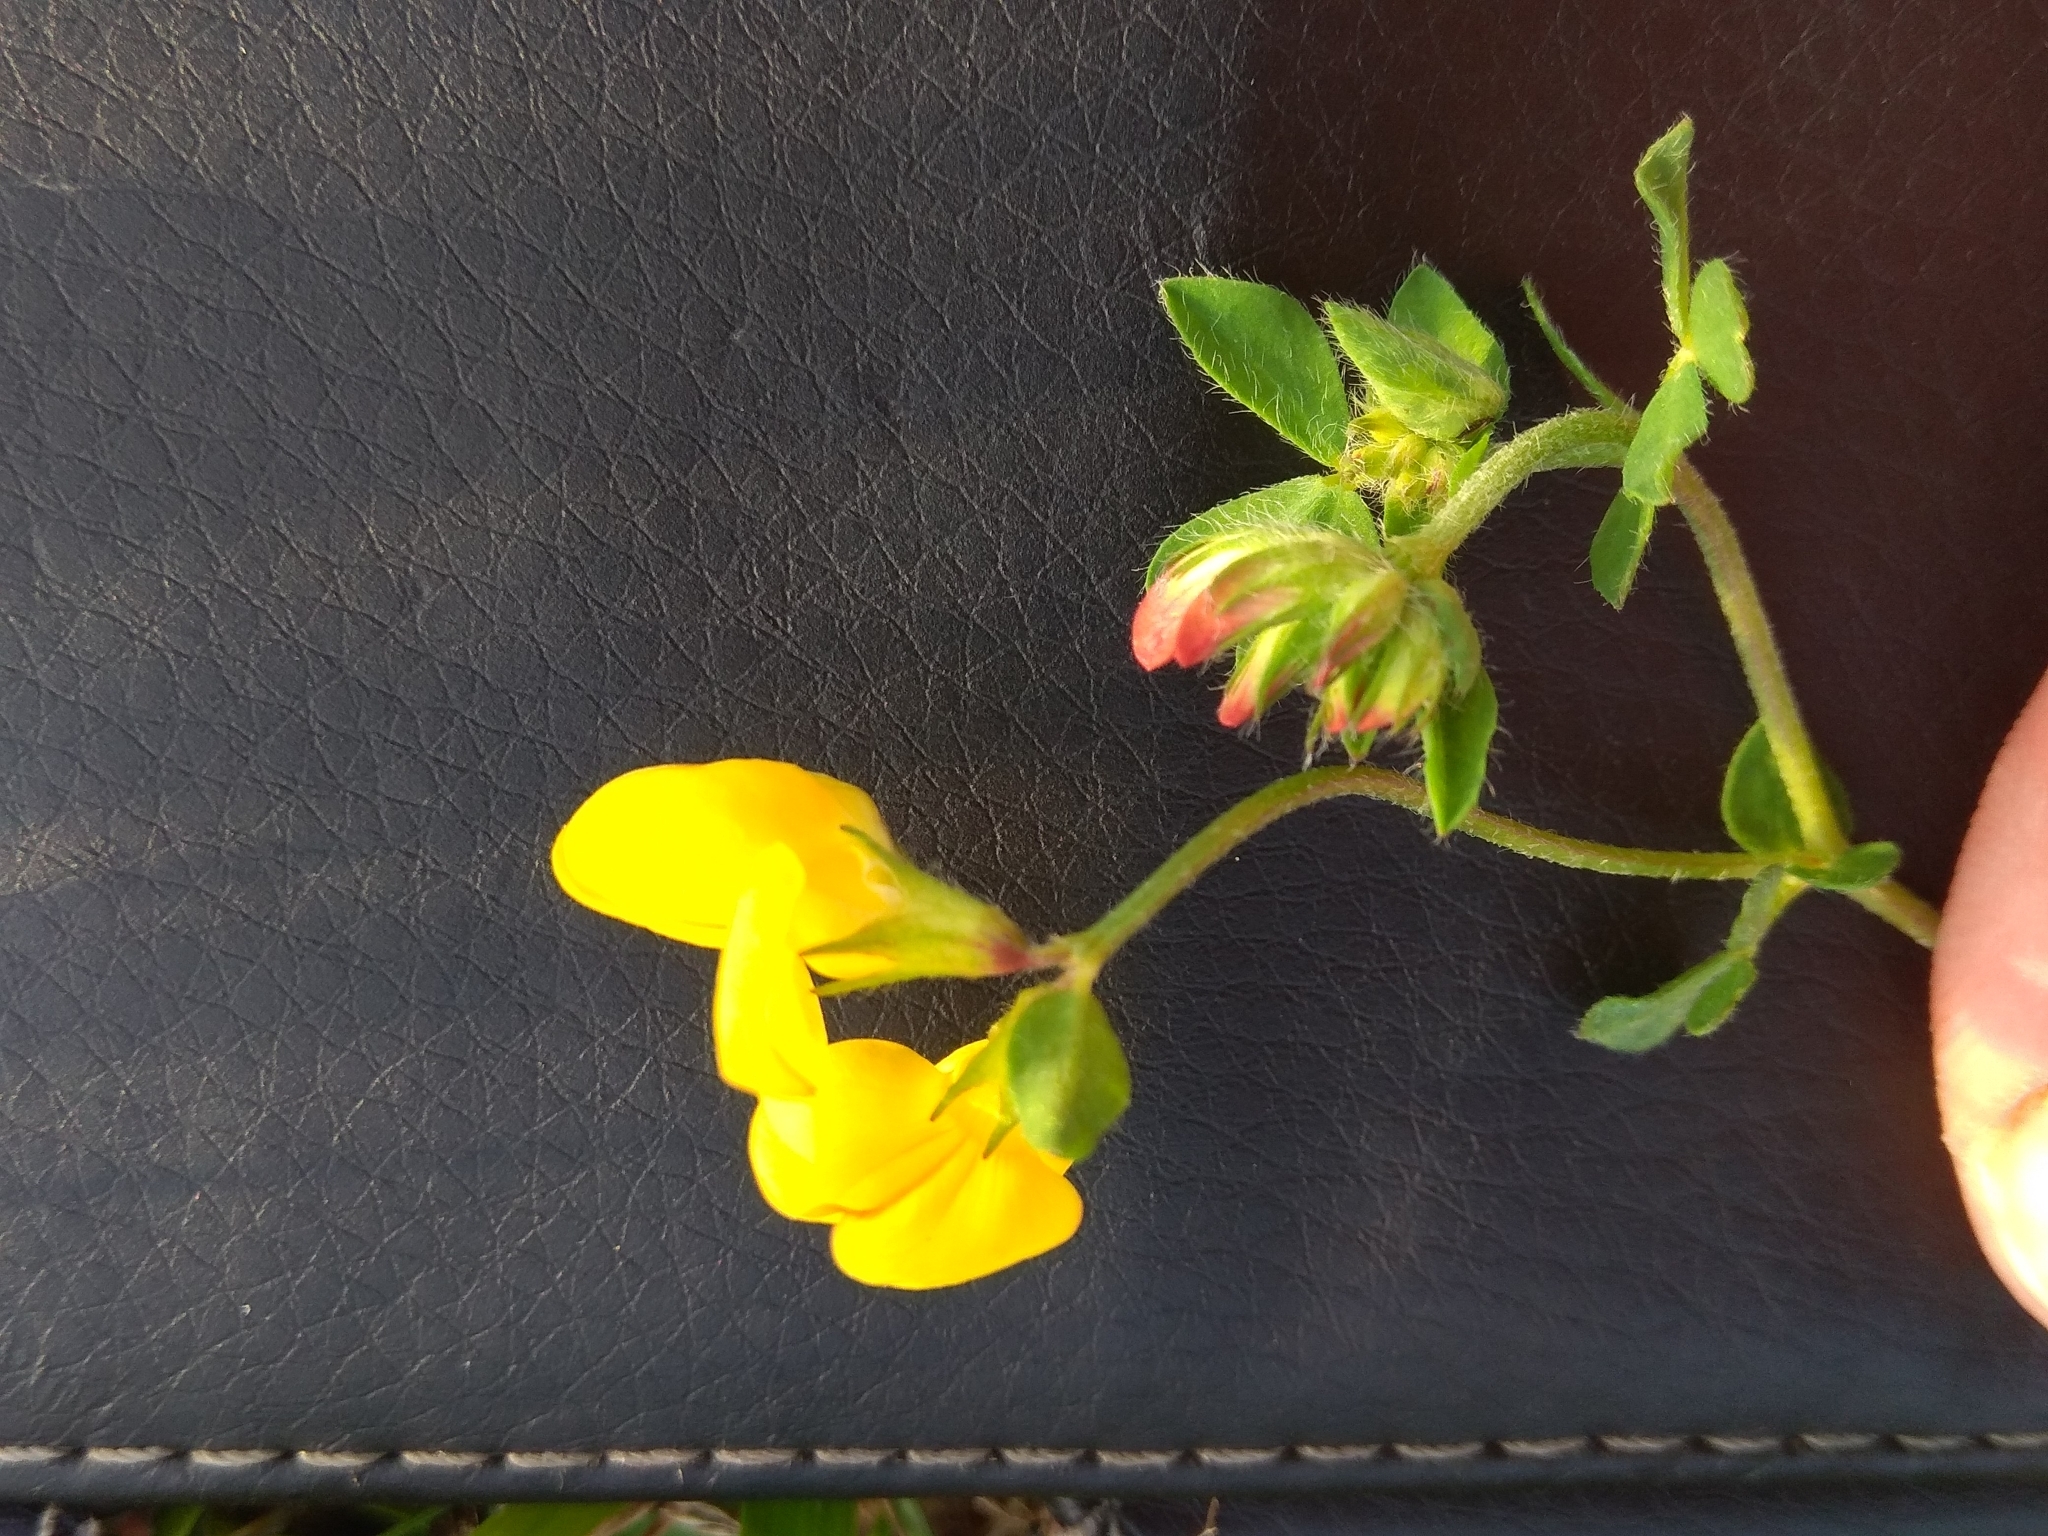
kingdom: Plantae
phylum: Tracheophyta
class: Magnoliopsida
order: Fabales
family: Fabaceae
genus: Lotus
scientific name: Lotus corniculatus
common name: Common bird's-foot-trefoil
